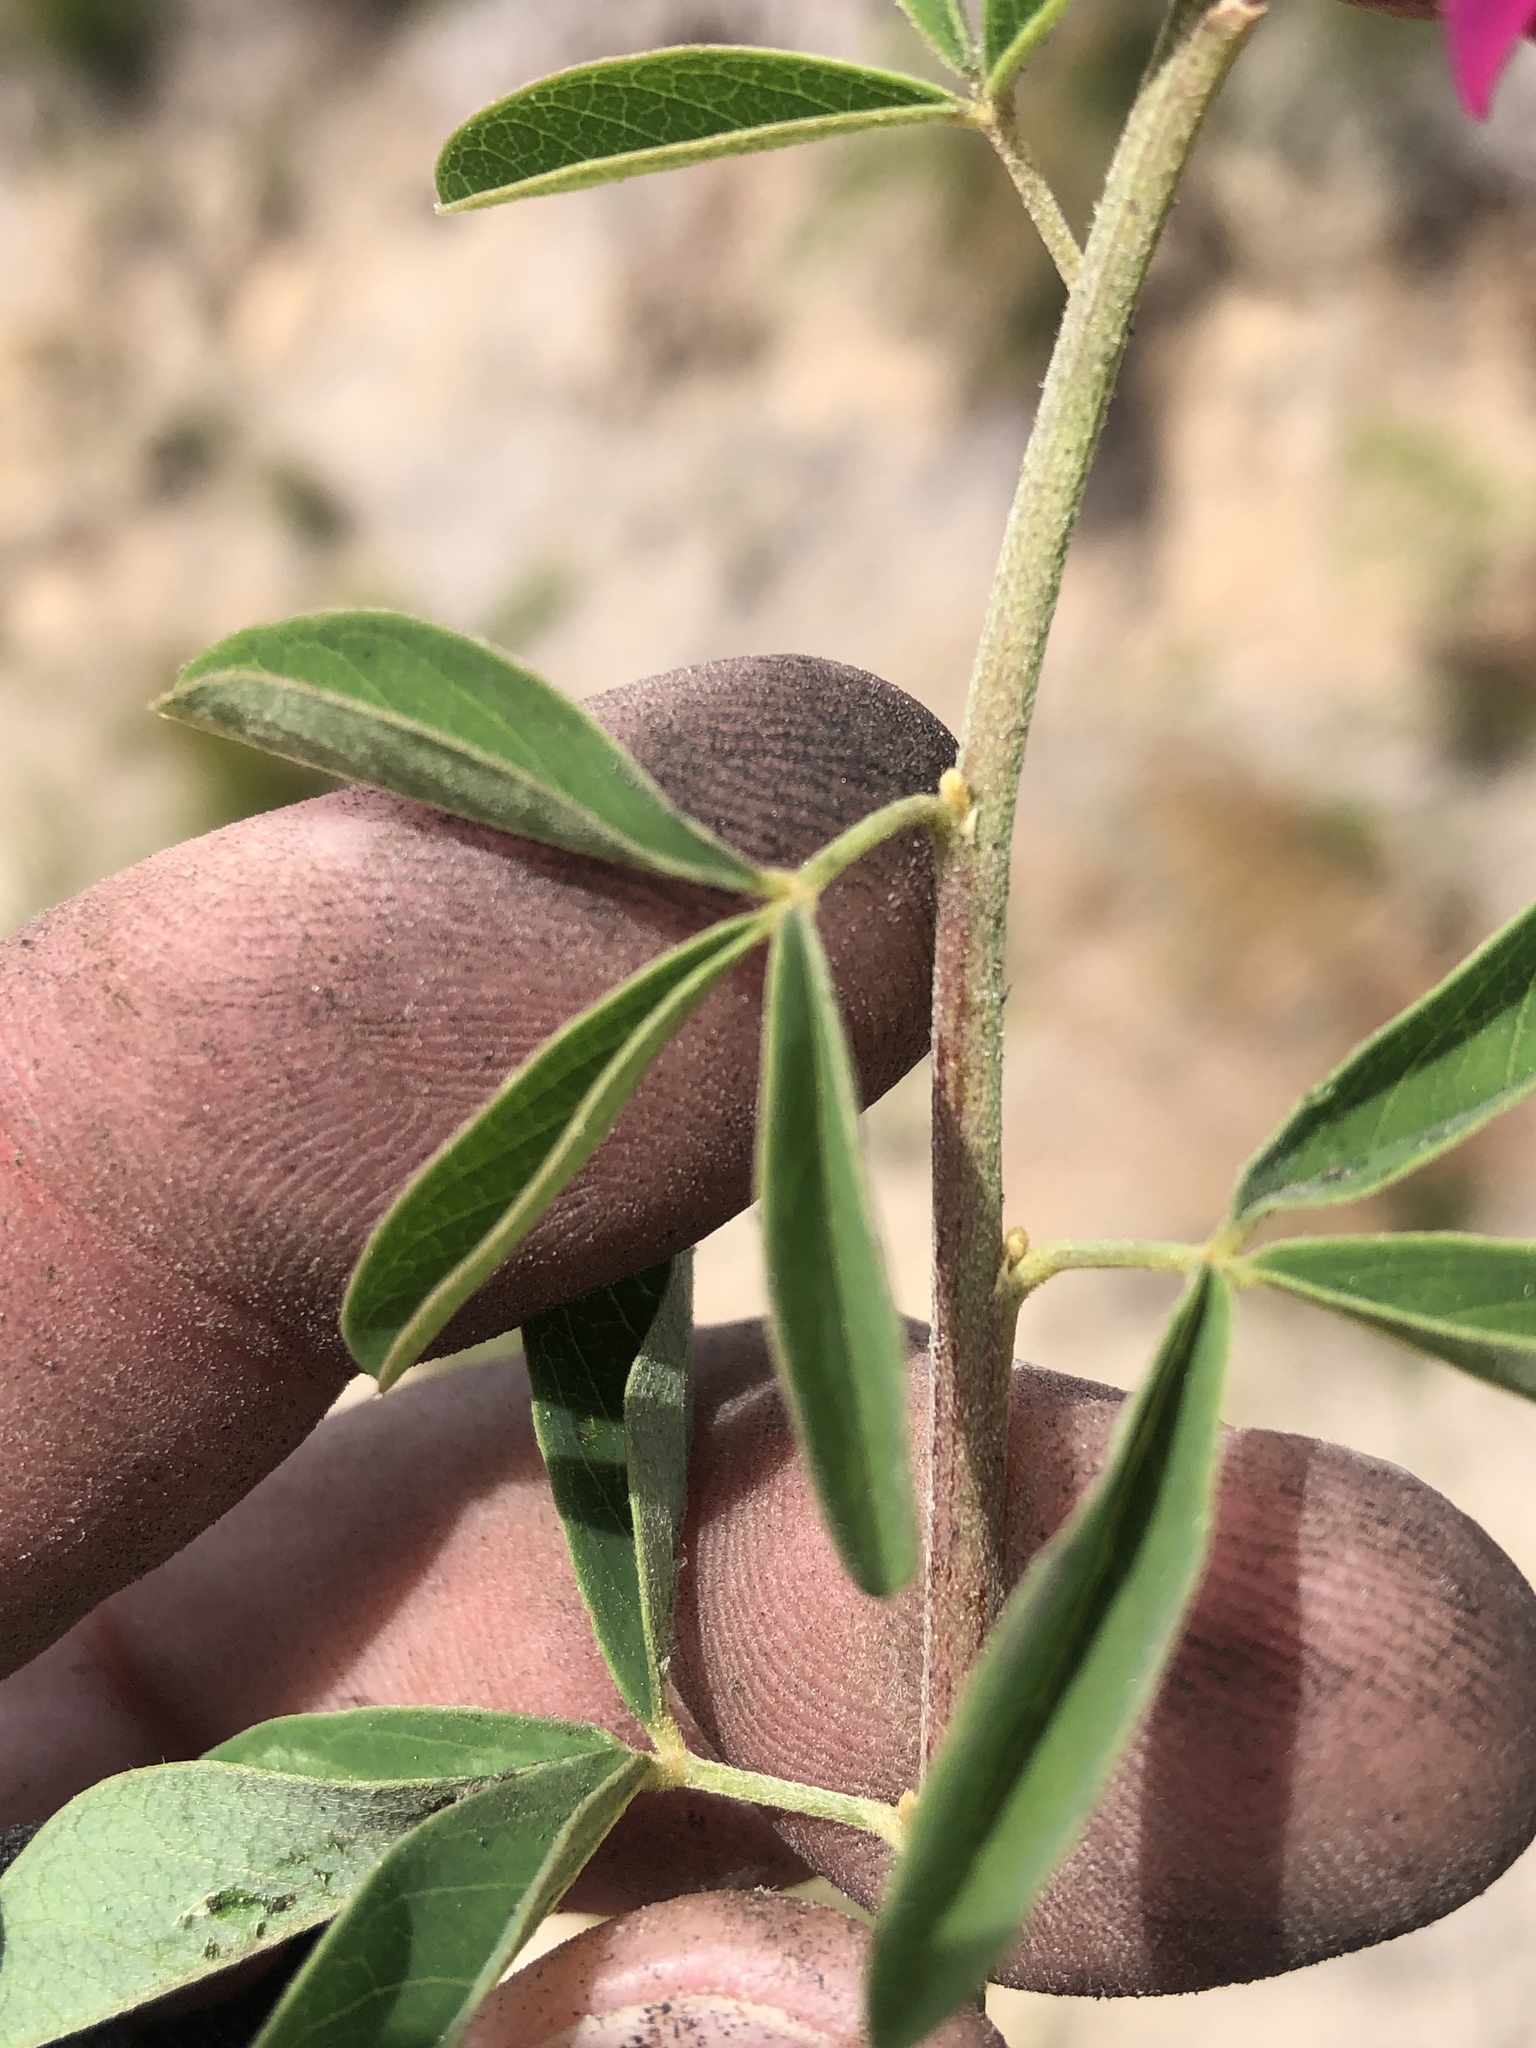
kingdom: Plantae
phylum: Tracheophyta
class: Magnoliopsida
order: Fabales
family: Fabaceae
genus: Hypocalyptus
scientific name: Hypocalyptus coluteoides
